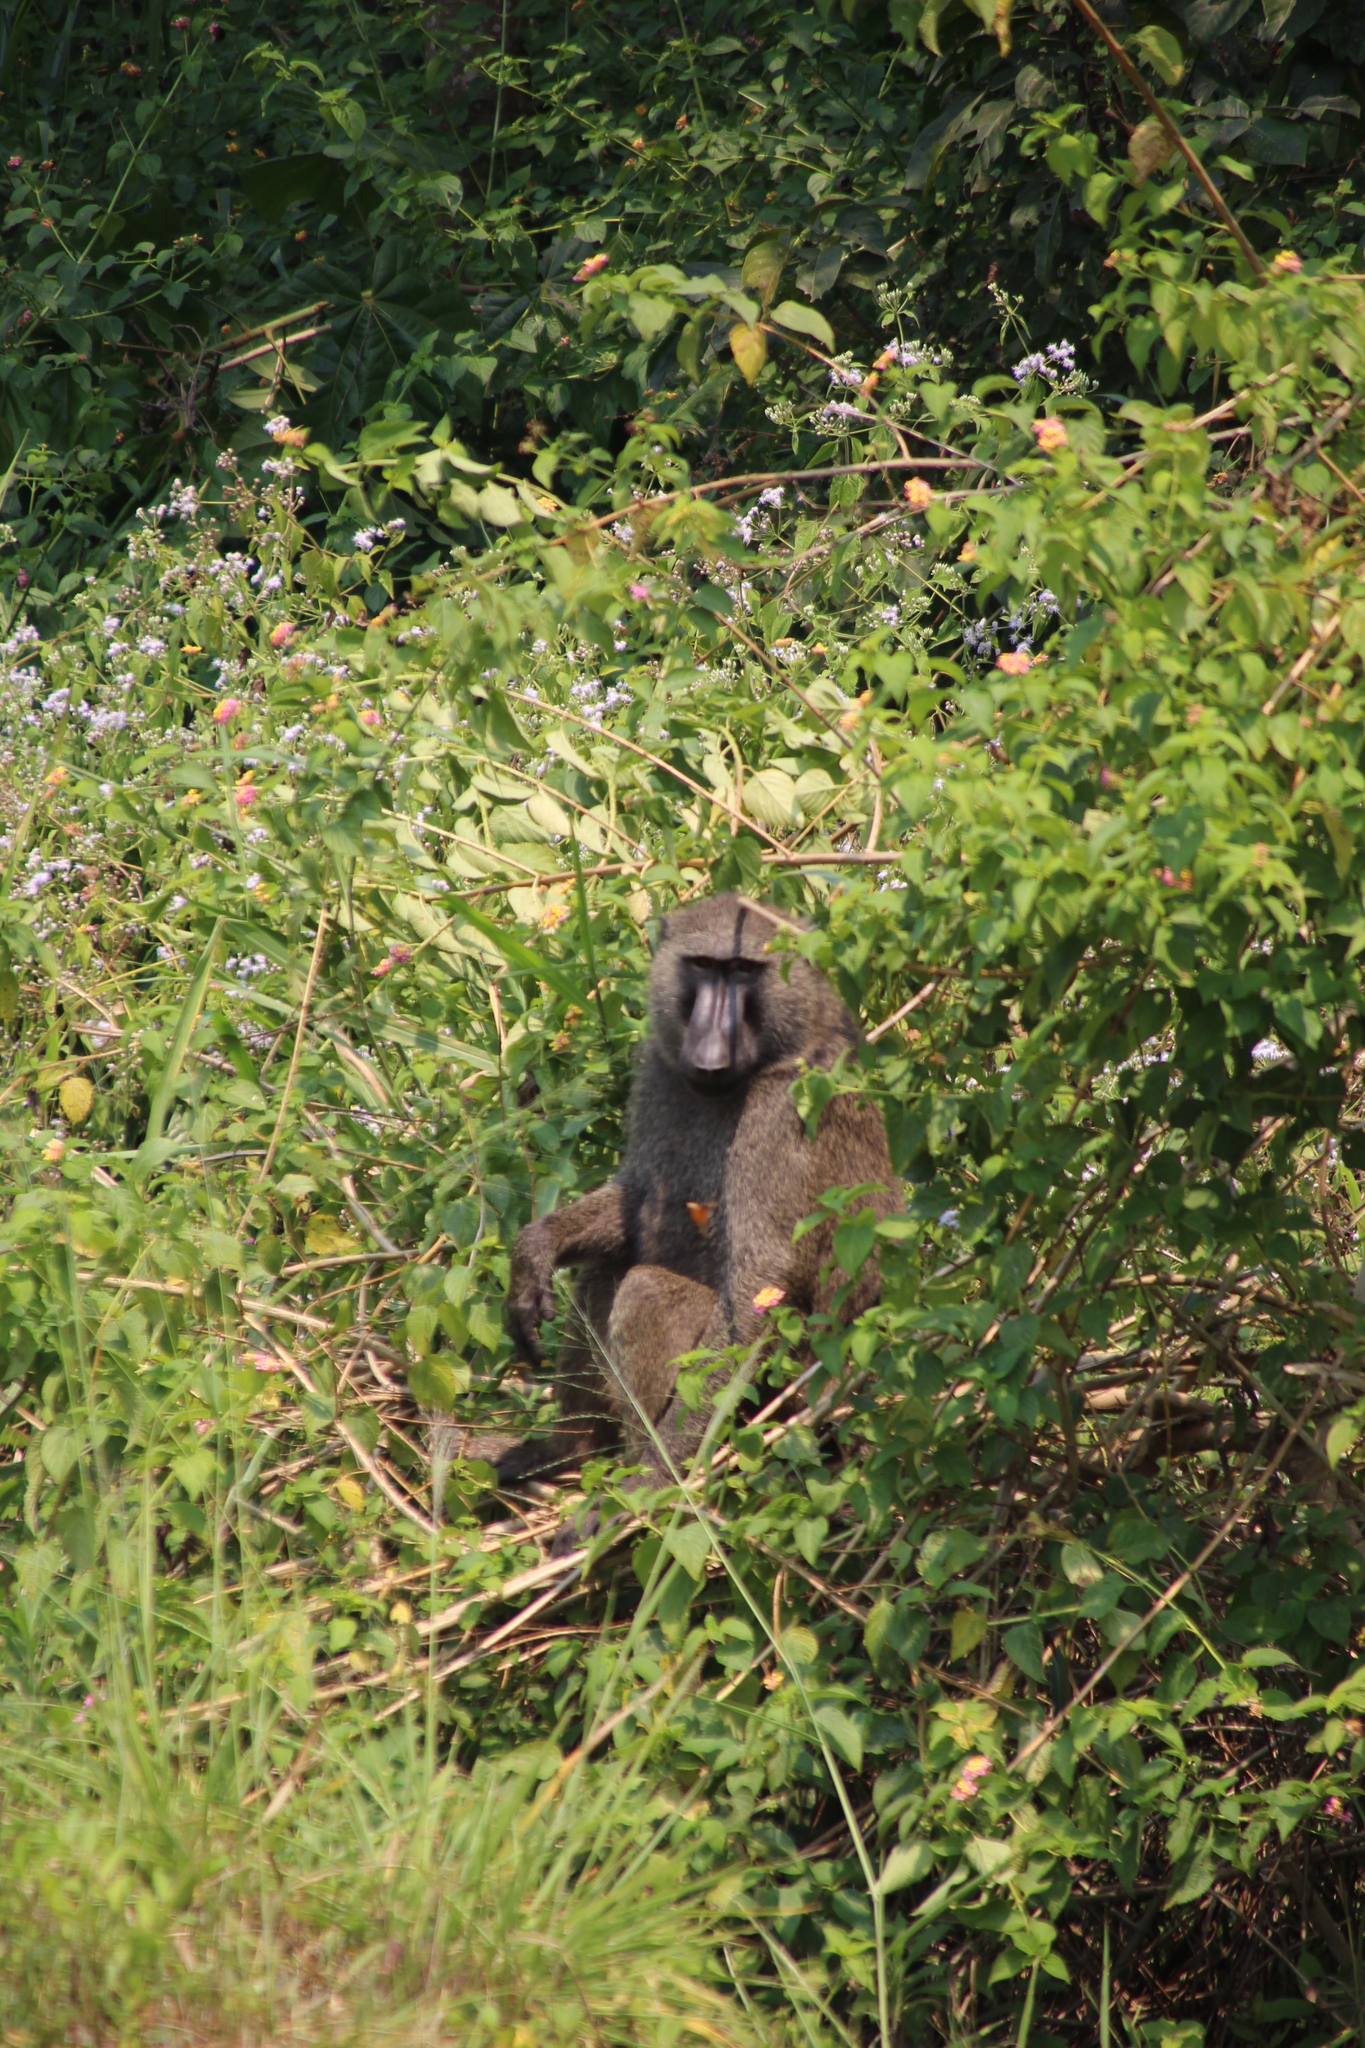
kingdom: Animalia
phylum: Chordata
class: Mammalia
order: Primates
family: Cercopithecidae
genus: Papio
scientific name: Papio anubis
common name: Olive baboon
